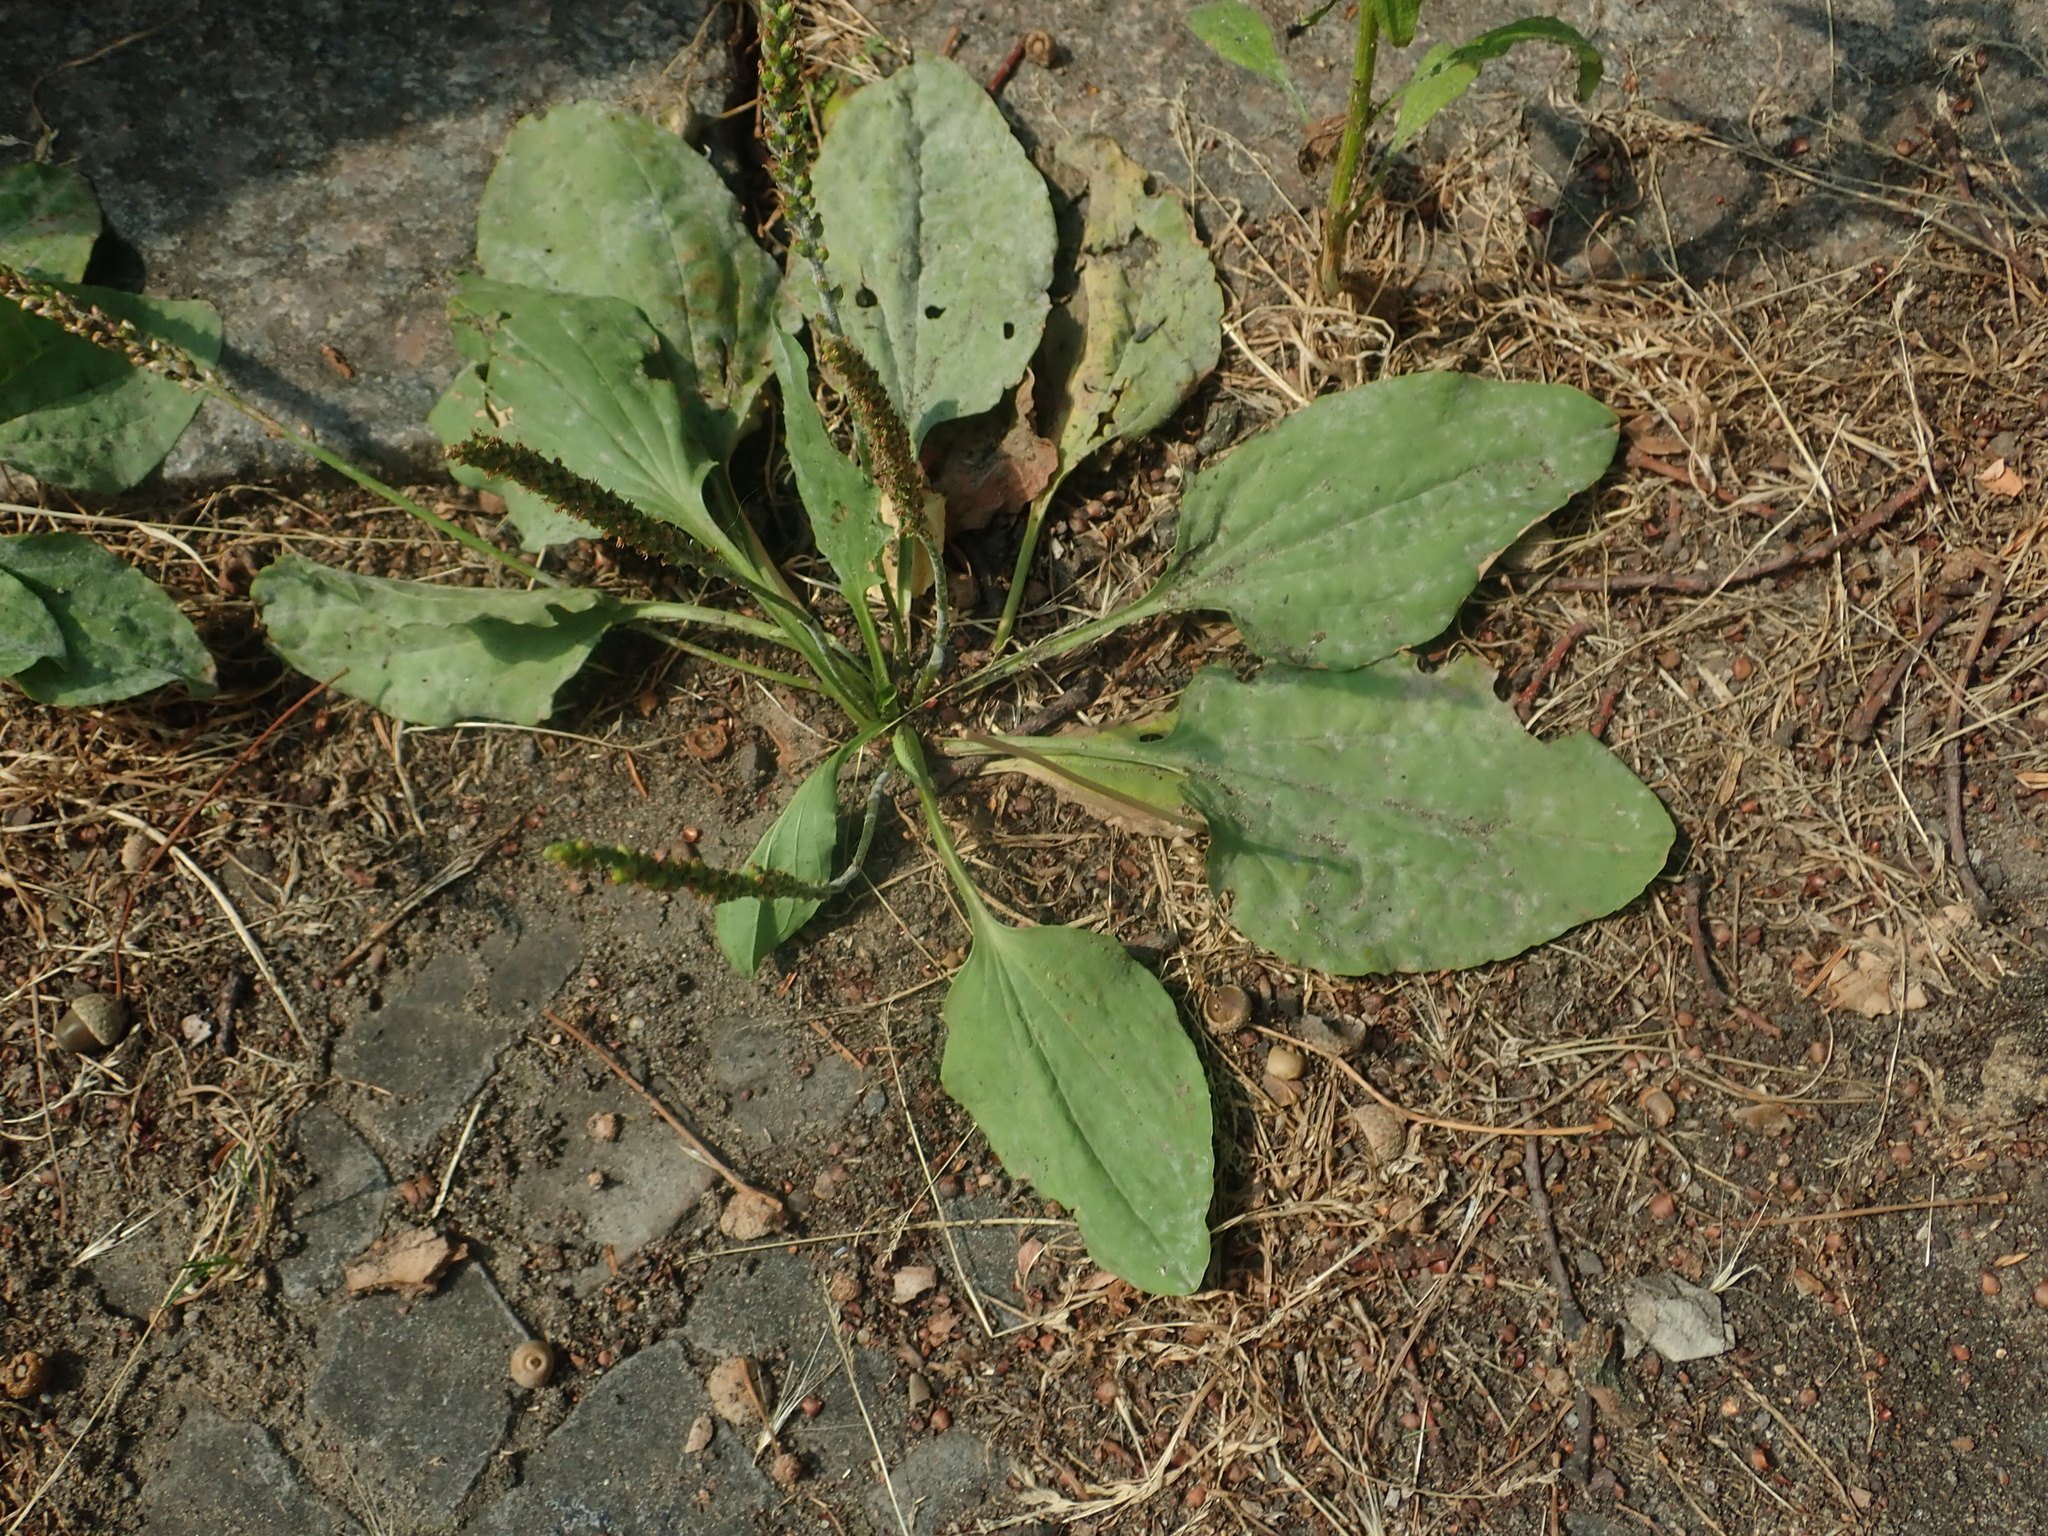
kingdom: Plantae
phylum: Tracheophyta
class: Magnoliopsida
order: Lamiales
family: Plantaginaceae
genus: Plantago
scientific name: Plantago major
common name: Common plantain
